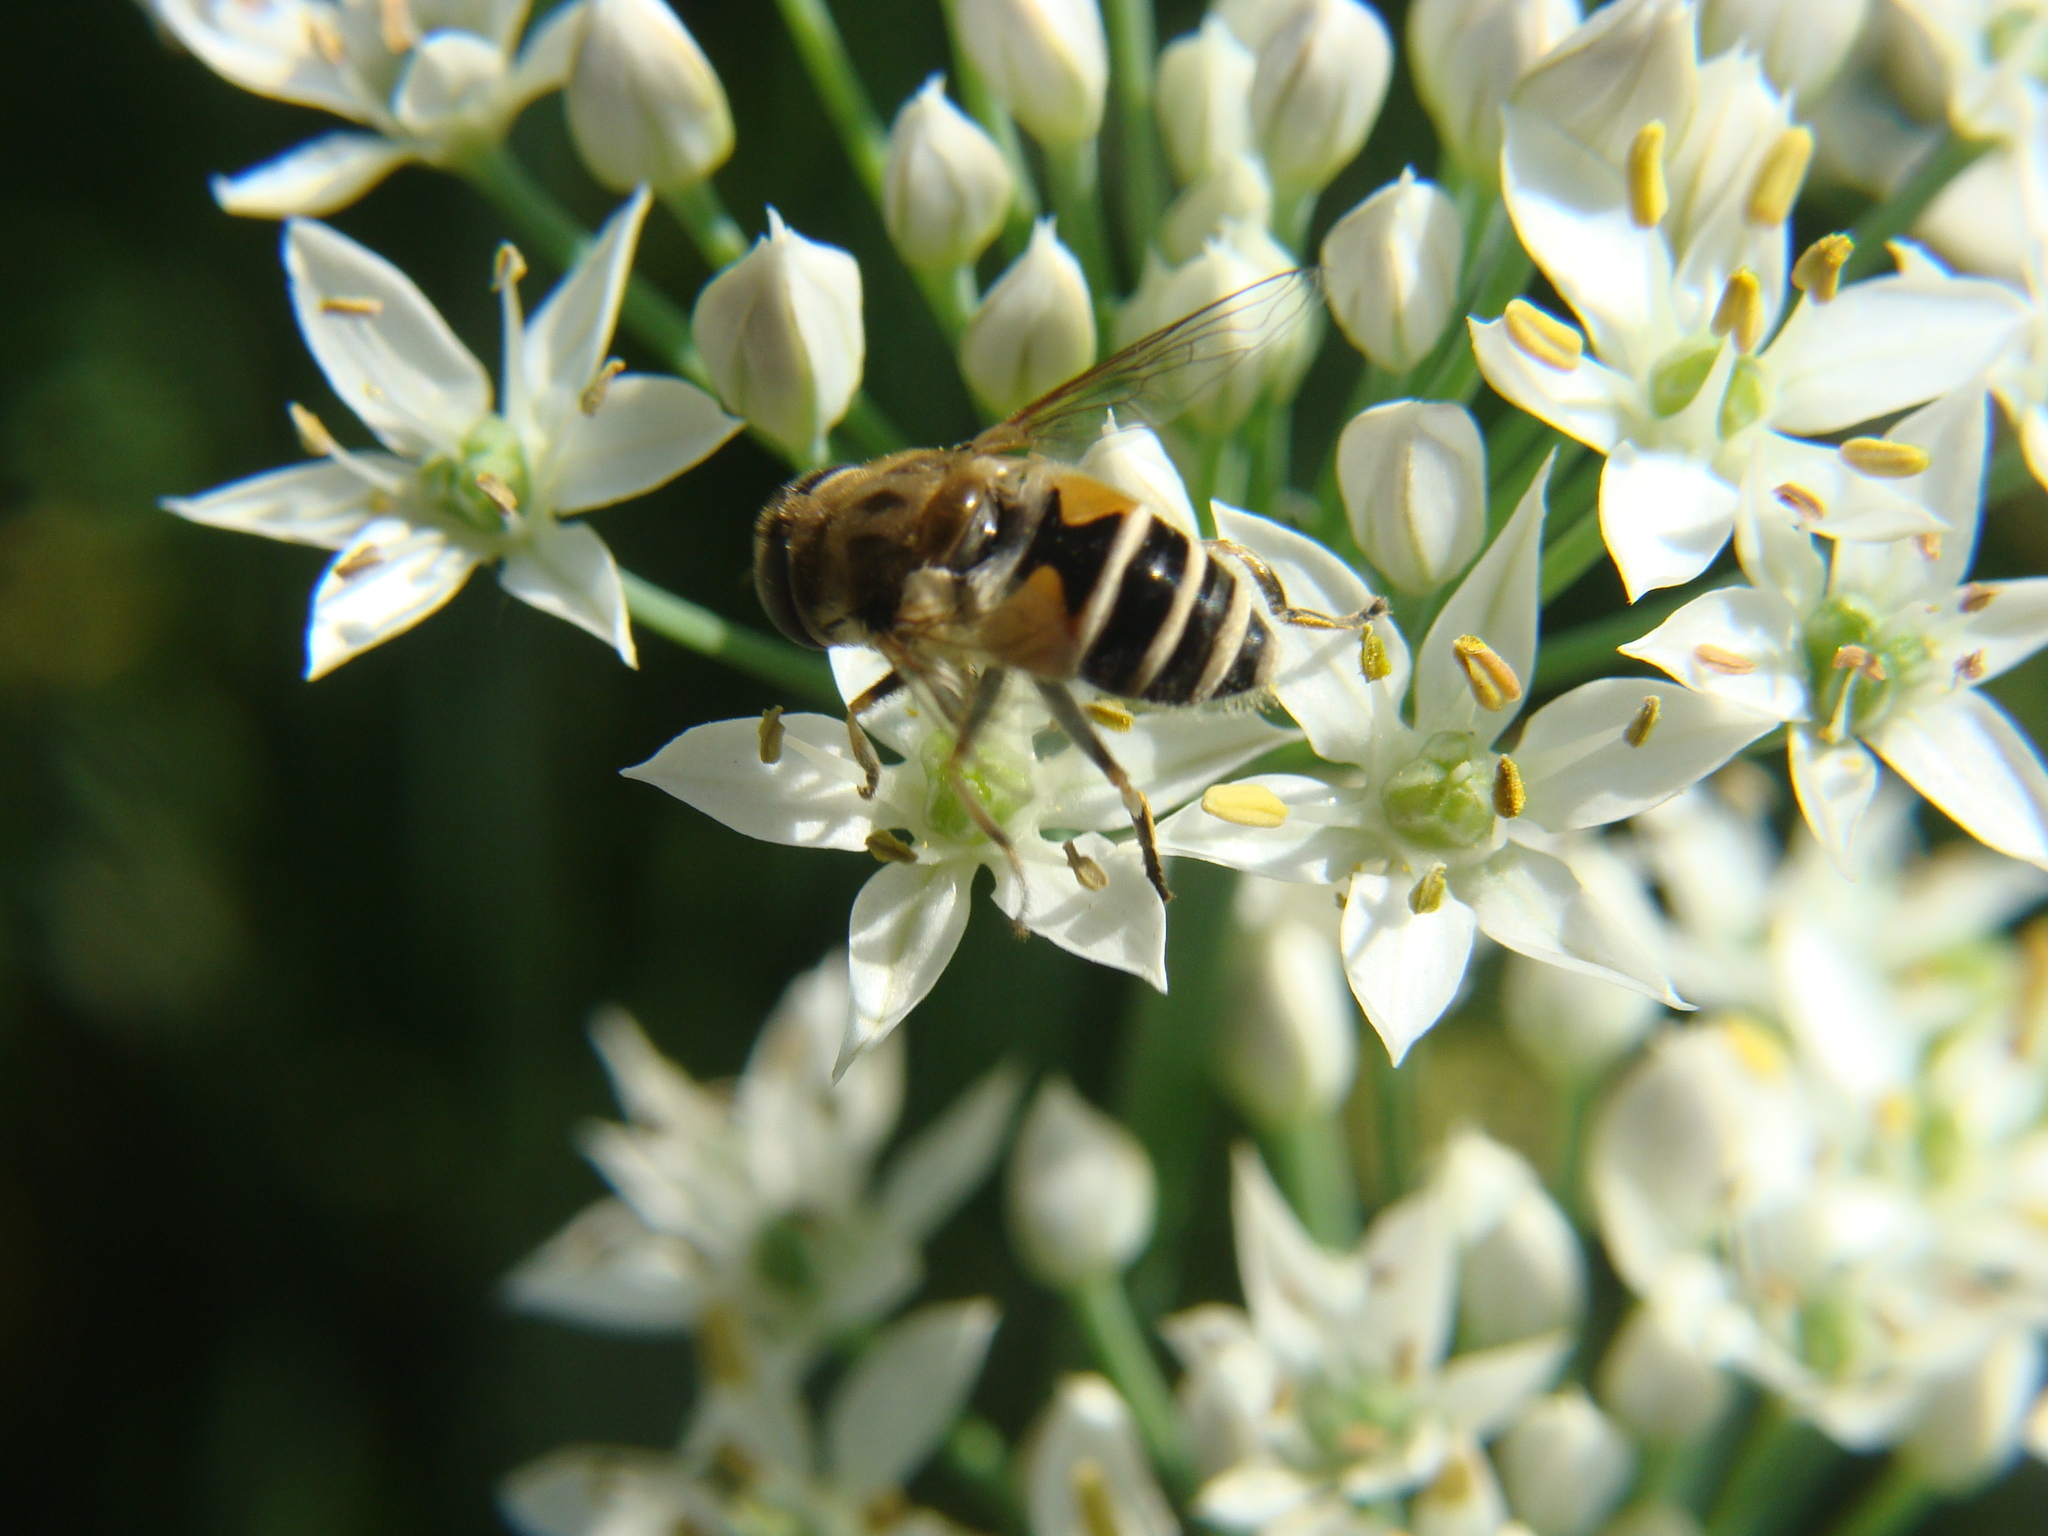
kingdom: Animalia
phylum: Arthropoda
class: Insecta
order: Diptera
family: Syrphidae
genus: Eristalis
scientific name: Eristalis arbustorum
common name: Hover fly
